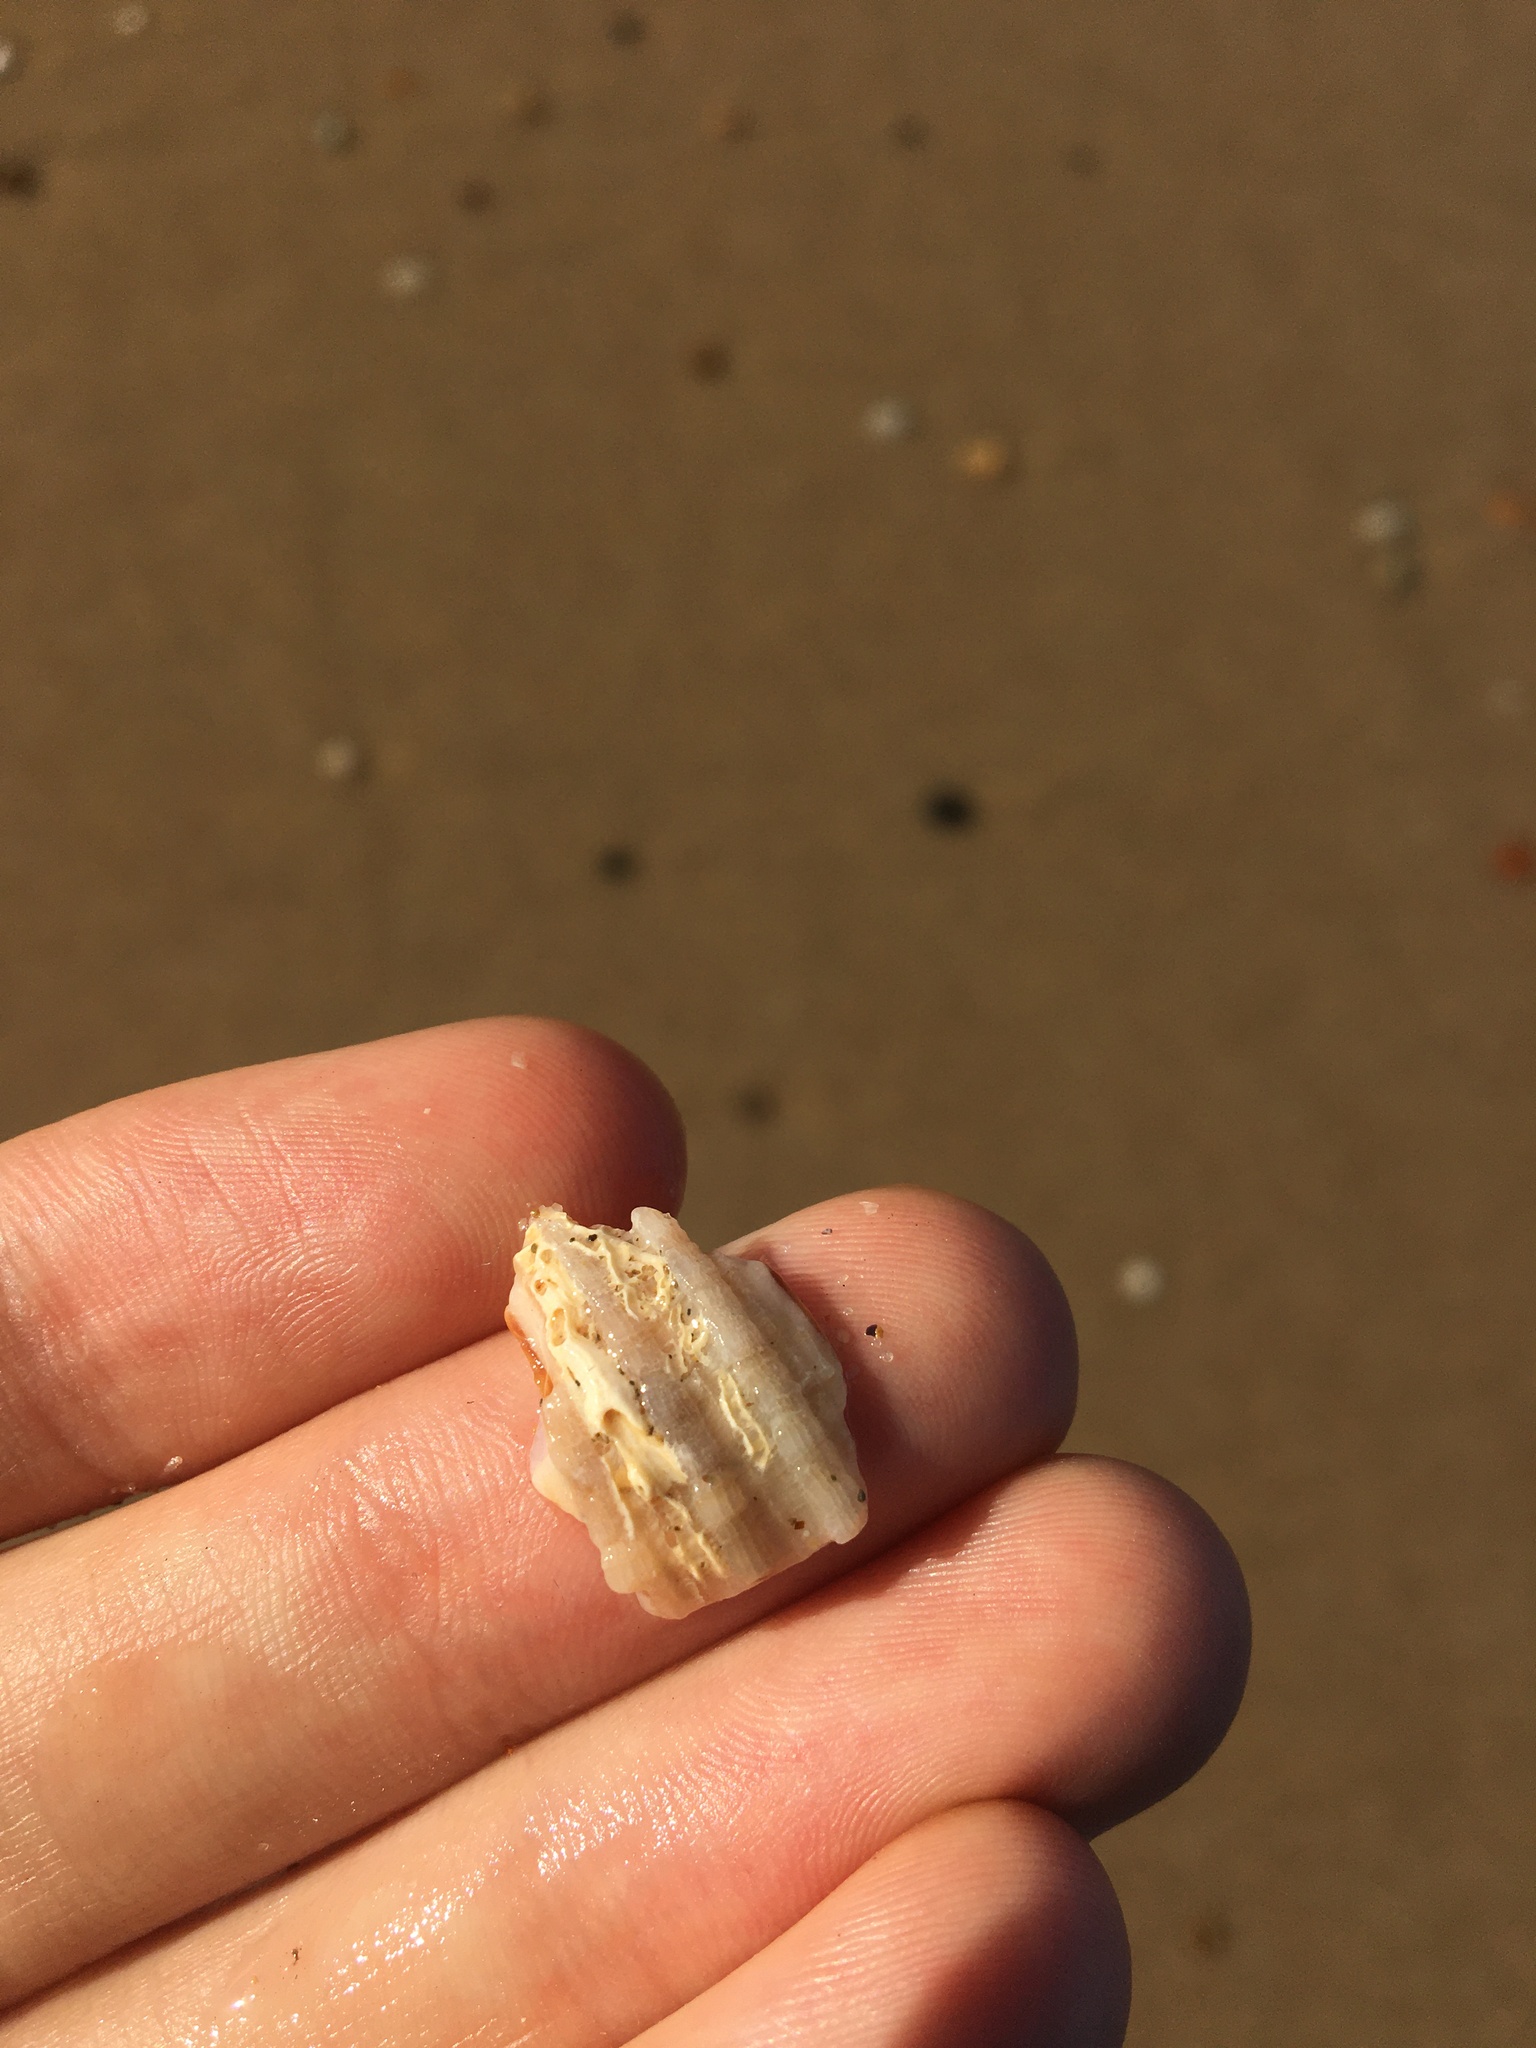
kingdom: Animalia
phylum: Mollusca
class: Gastropoda
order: Neogastropoda
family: Muricidae
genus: Dicathais
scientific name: Dicathais orbita
